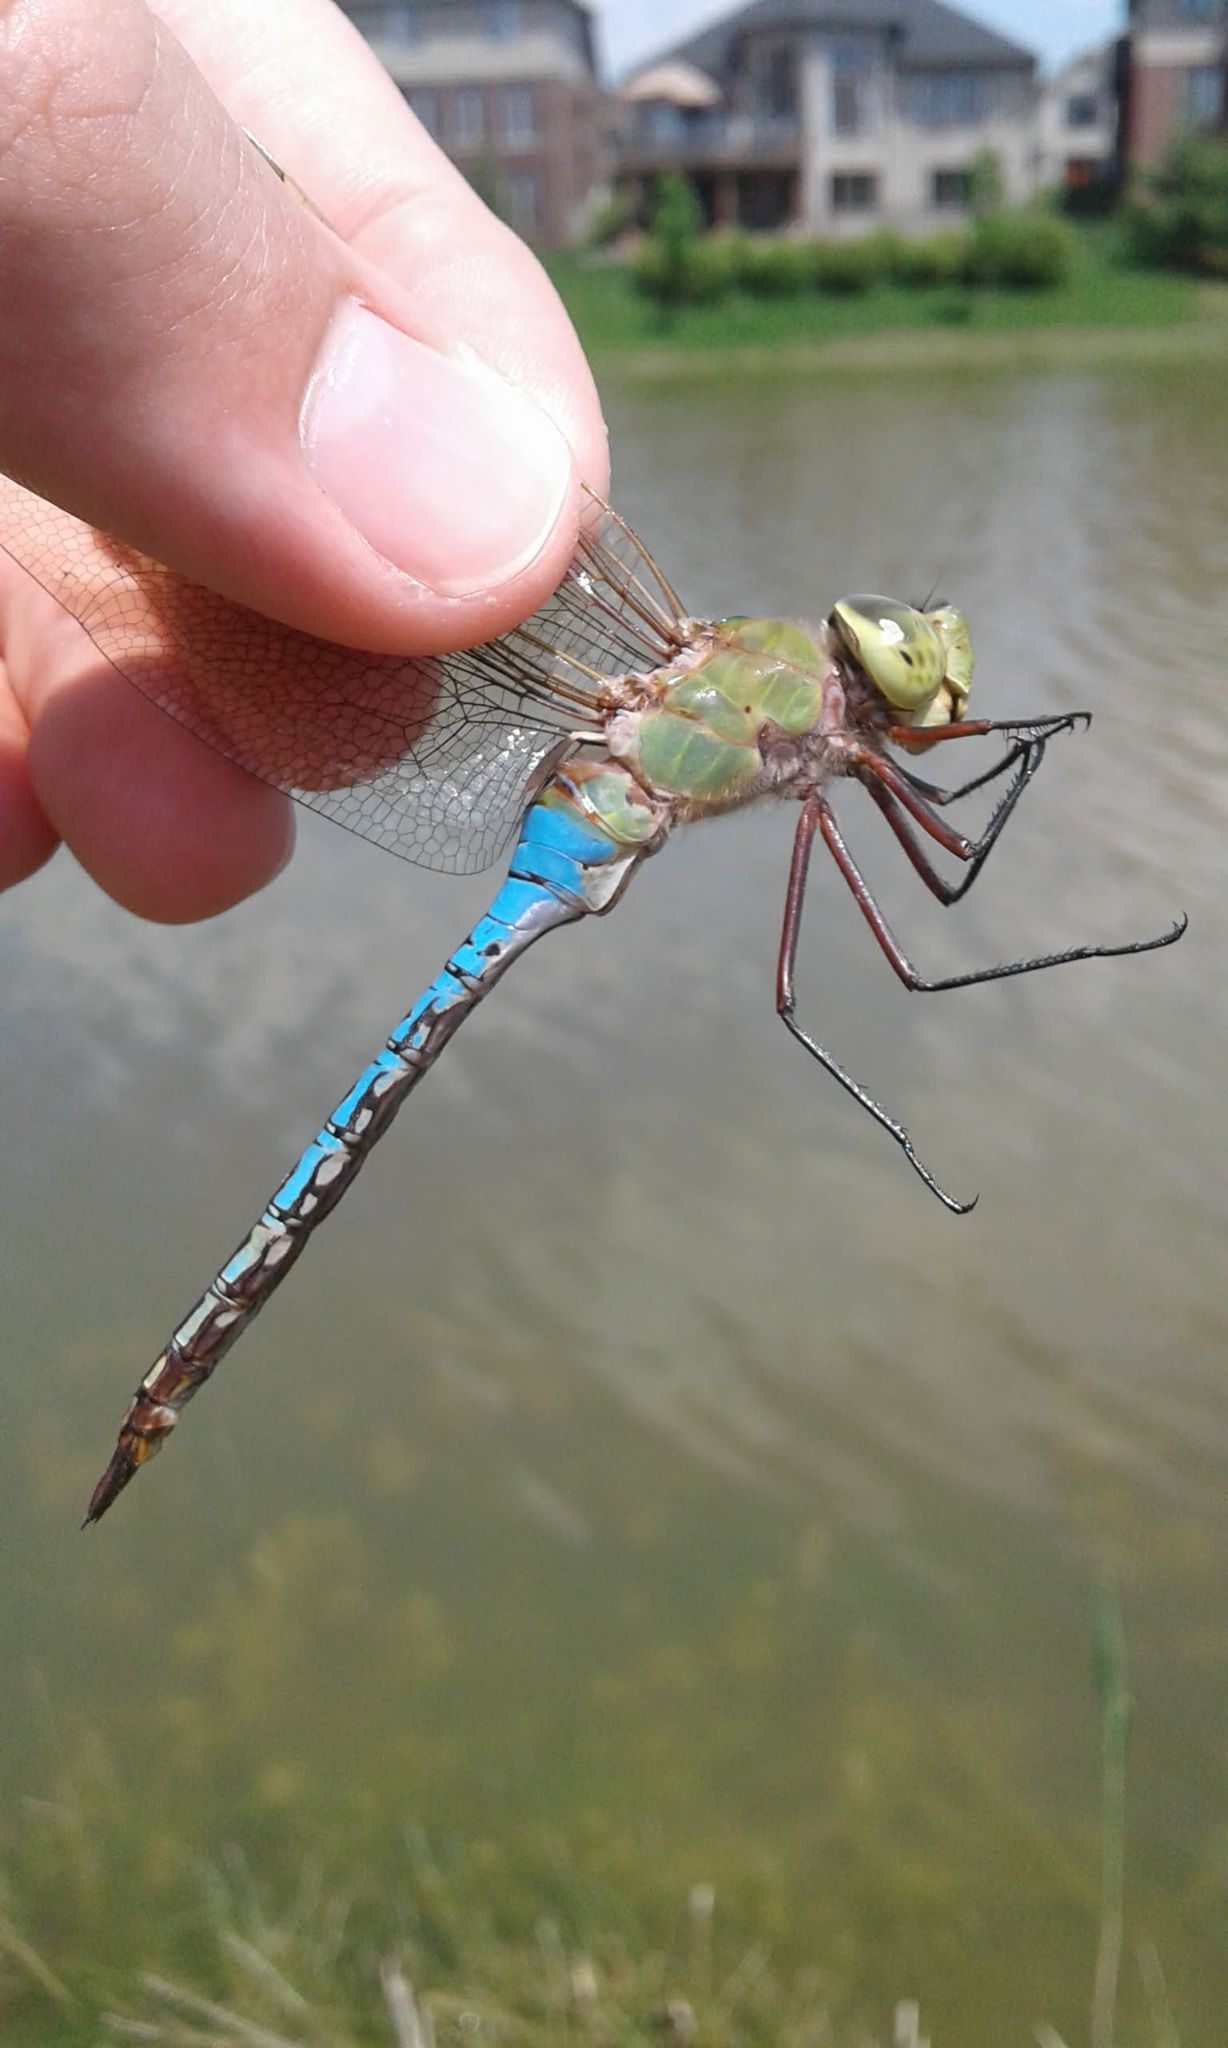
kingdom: Animalia
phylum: Arthropoda
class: Insecta
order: Odonata
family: Aeshnidae
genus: Anax
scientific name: Anax junius
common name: Common green darner
